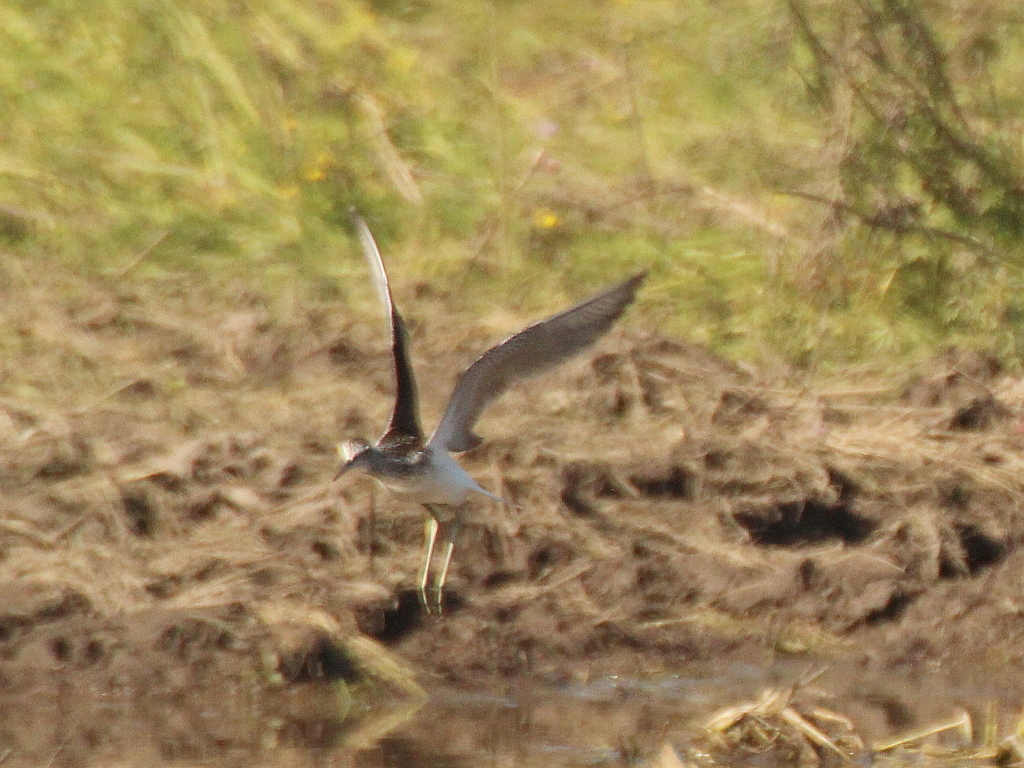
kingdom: Animalia
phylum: Chordata
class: Aves
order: Charadriiformes
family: Scolopacidae
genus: Tringa
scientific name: Tringa nebularia
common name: Common greenshank
